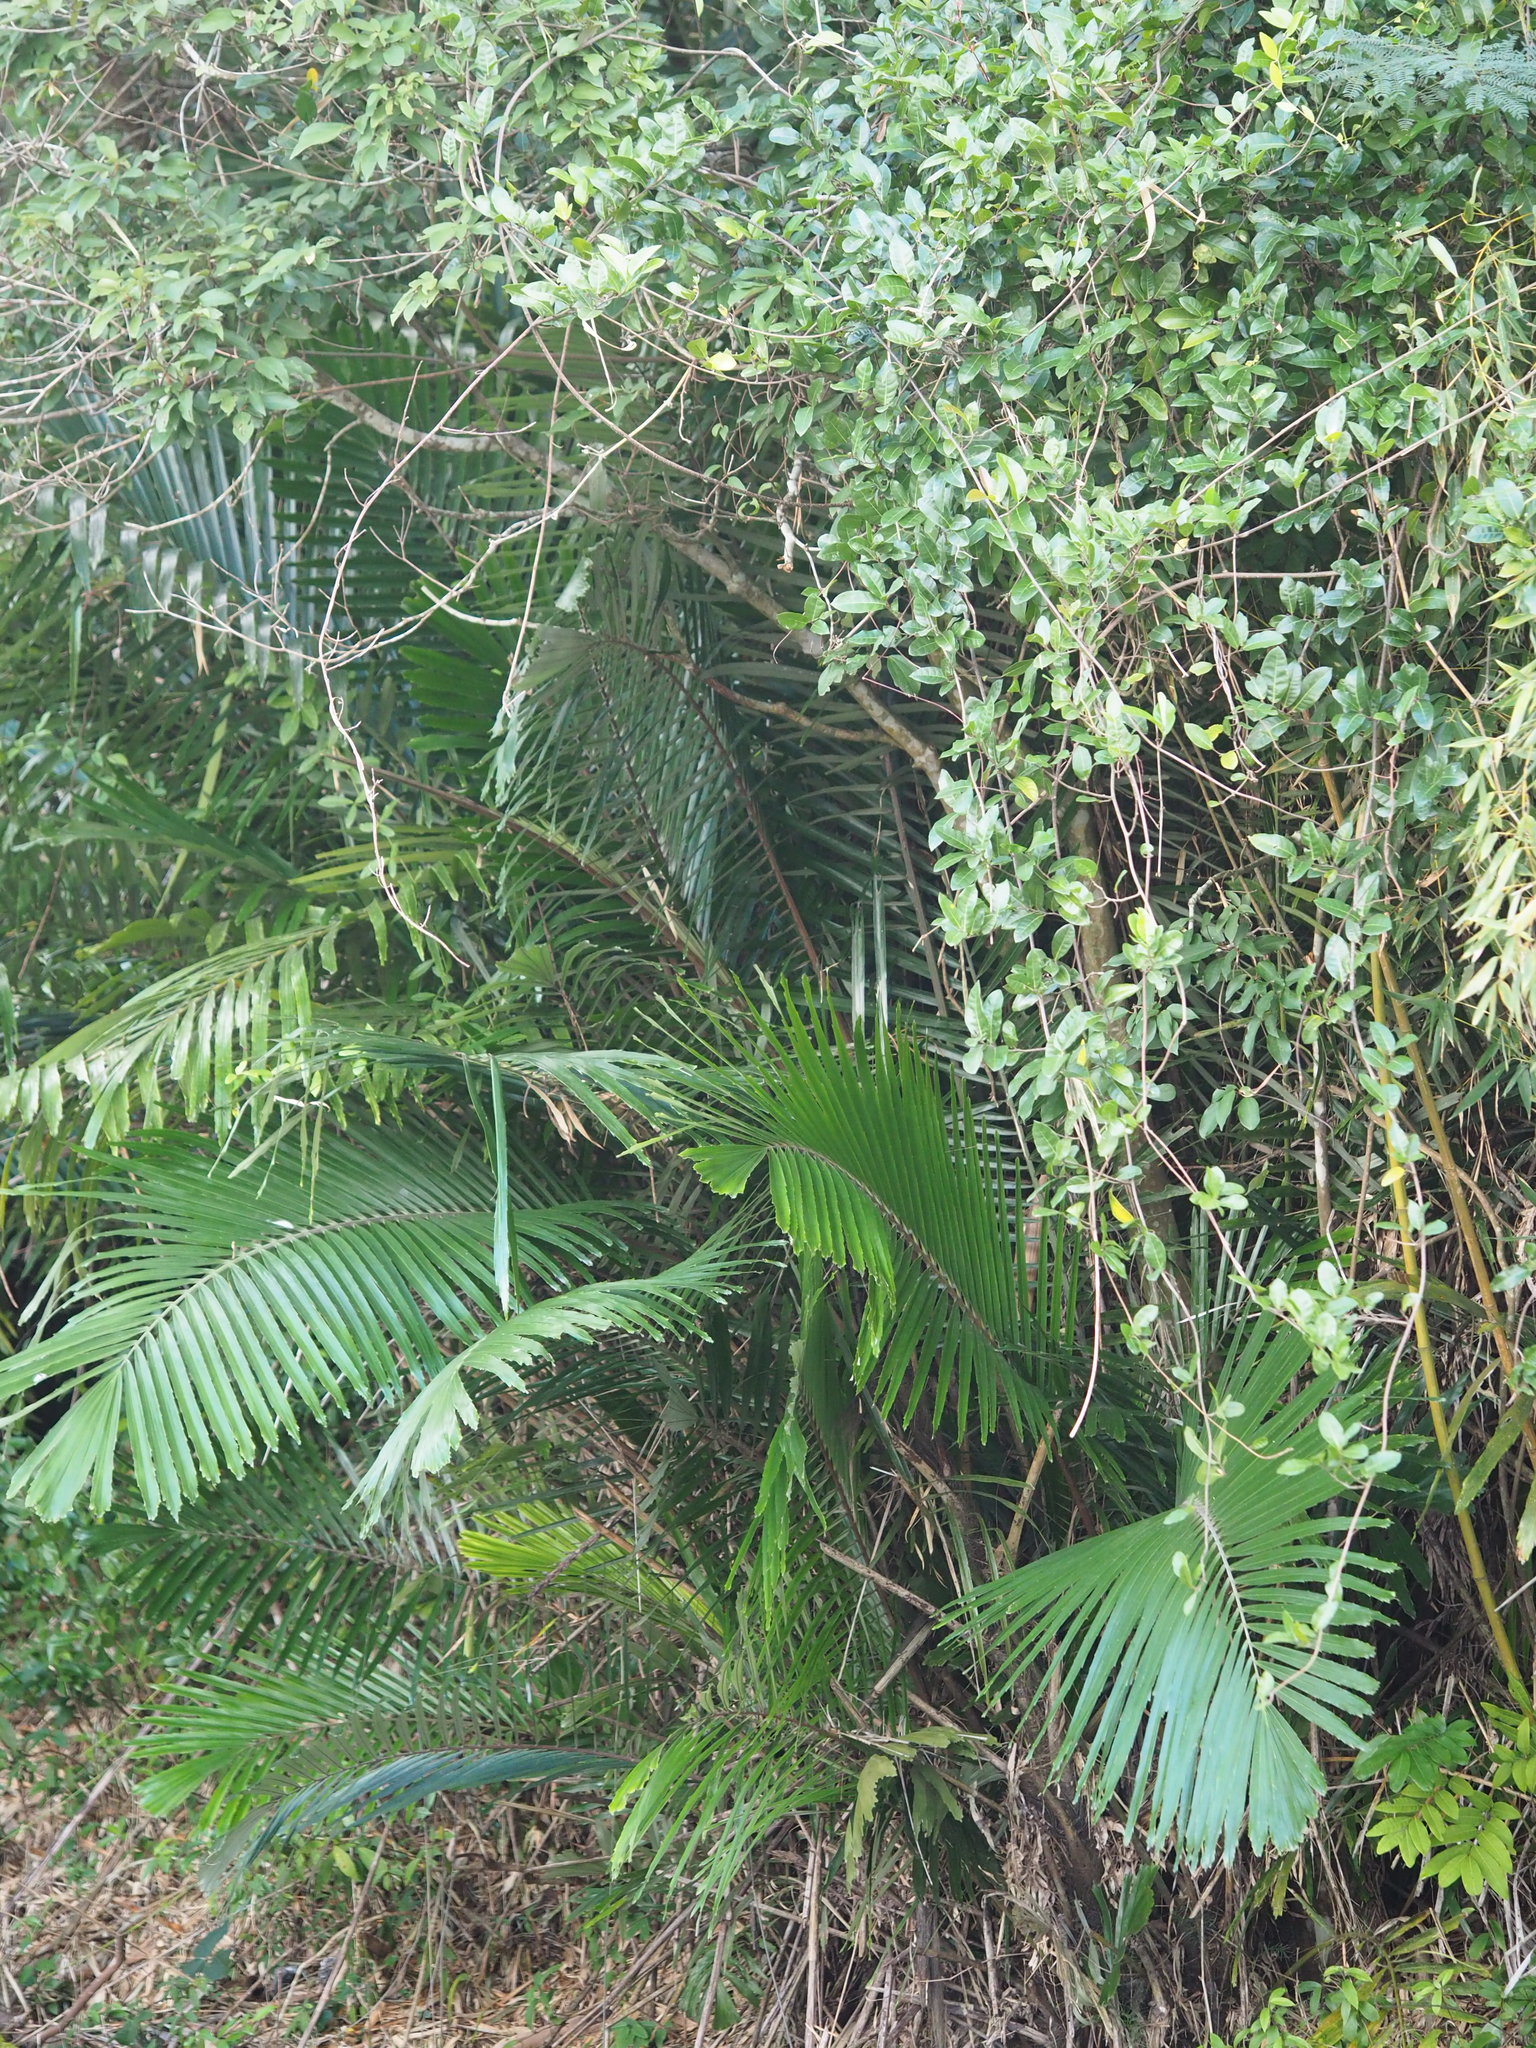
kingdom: Plantae
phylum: Tracheophyta
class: Liliopsida
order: Arecales
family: Arecaceae
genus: Arenga
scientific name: Arenga engleri
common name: Formosan sugar palm
